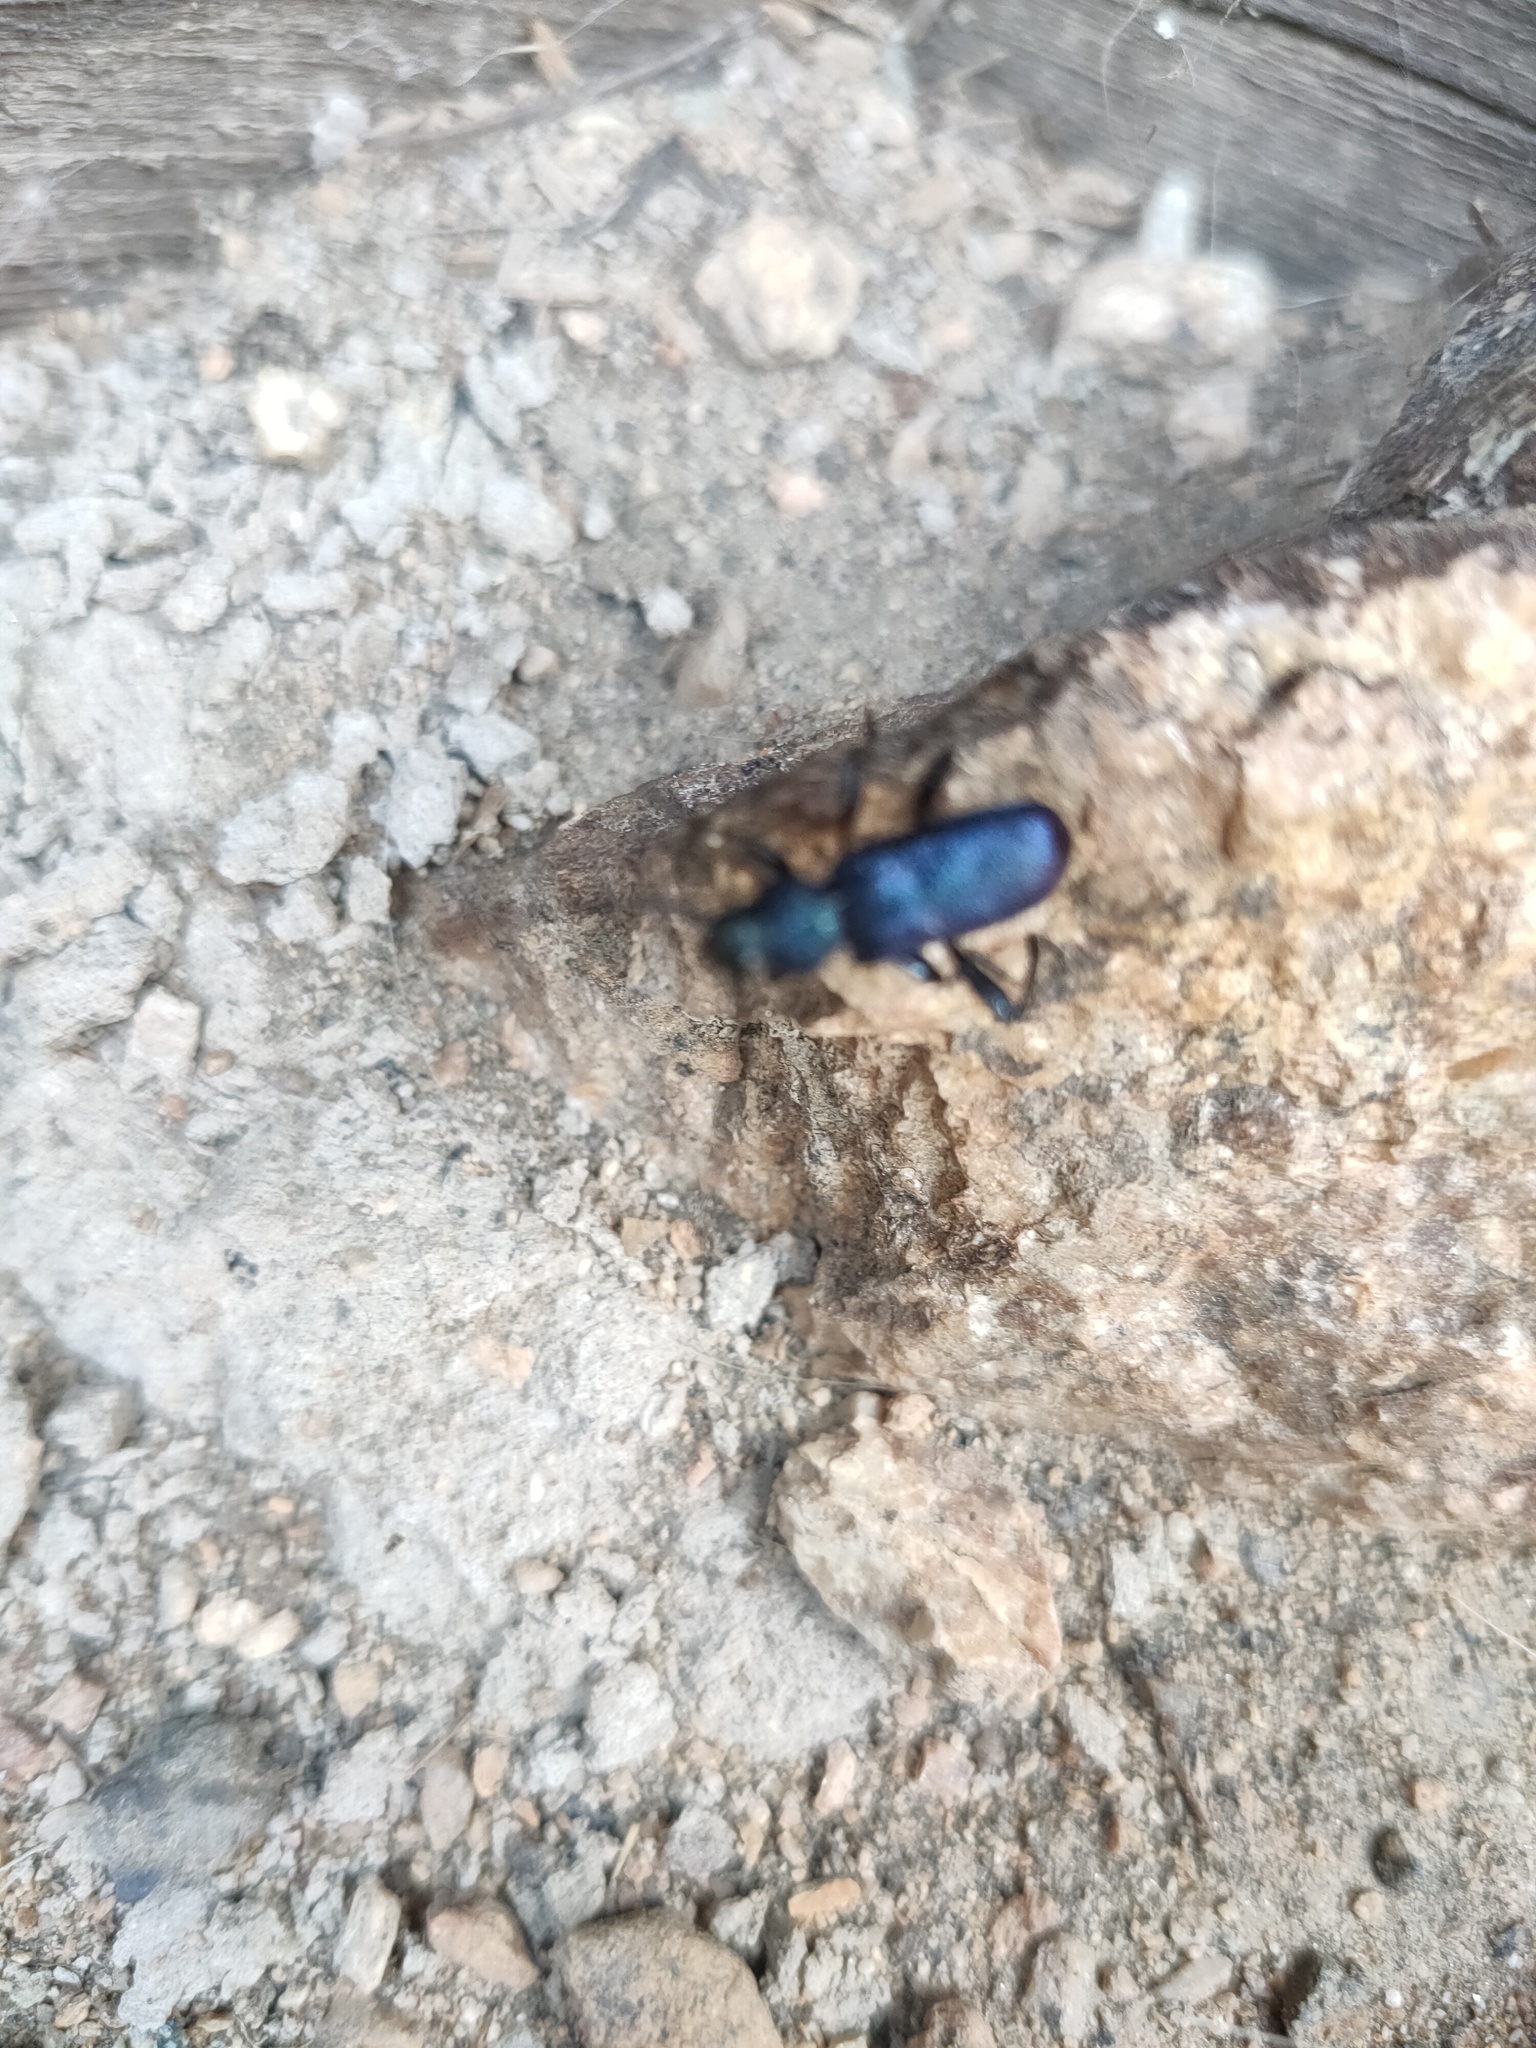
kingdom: Animalia
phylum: Arthropoda
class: Insecta
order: Coleoptera
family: Cerambycidae
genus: Callidium
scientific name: Callidium violaceum
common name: Violet tanbark beetle
